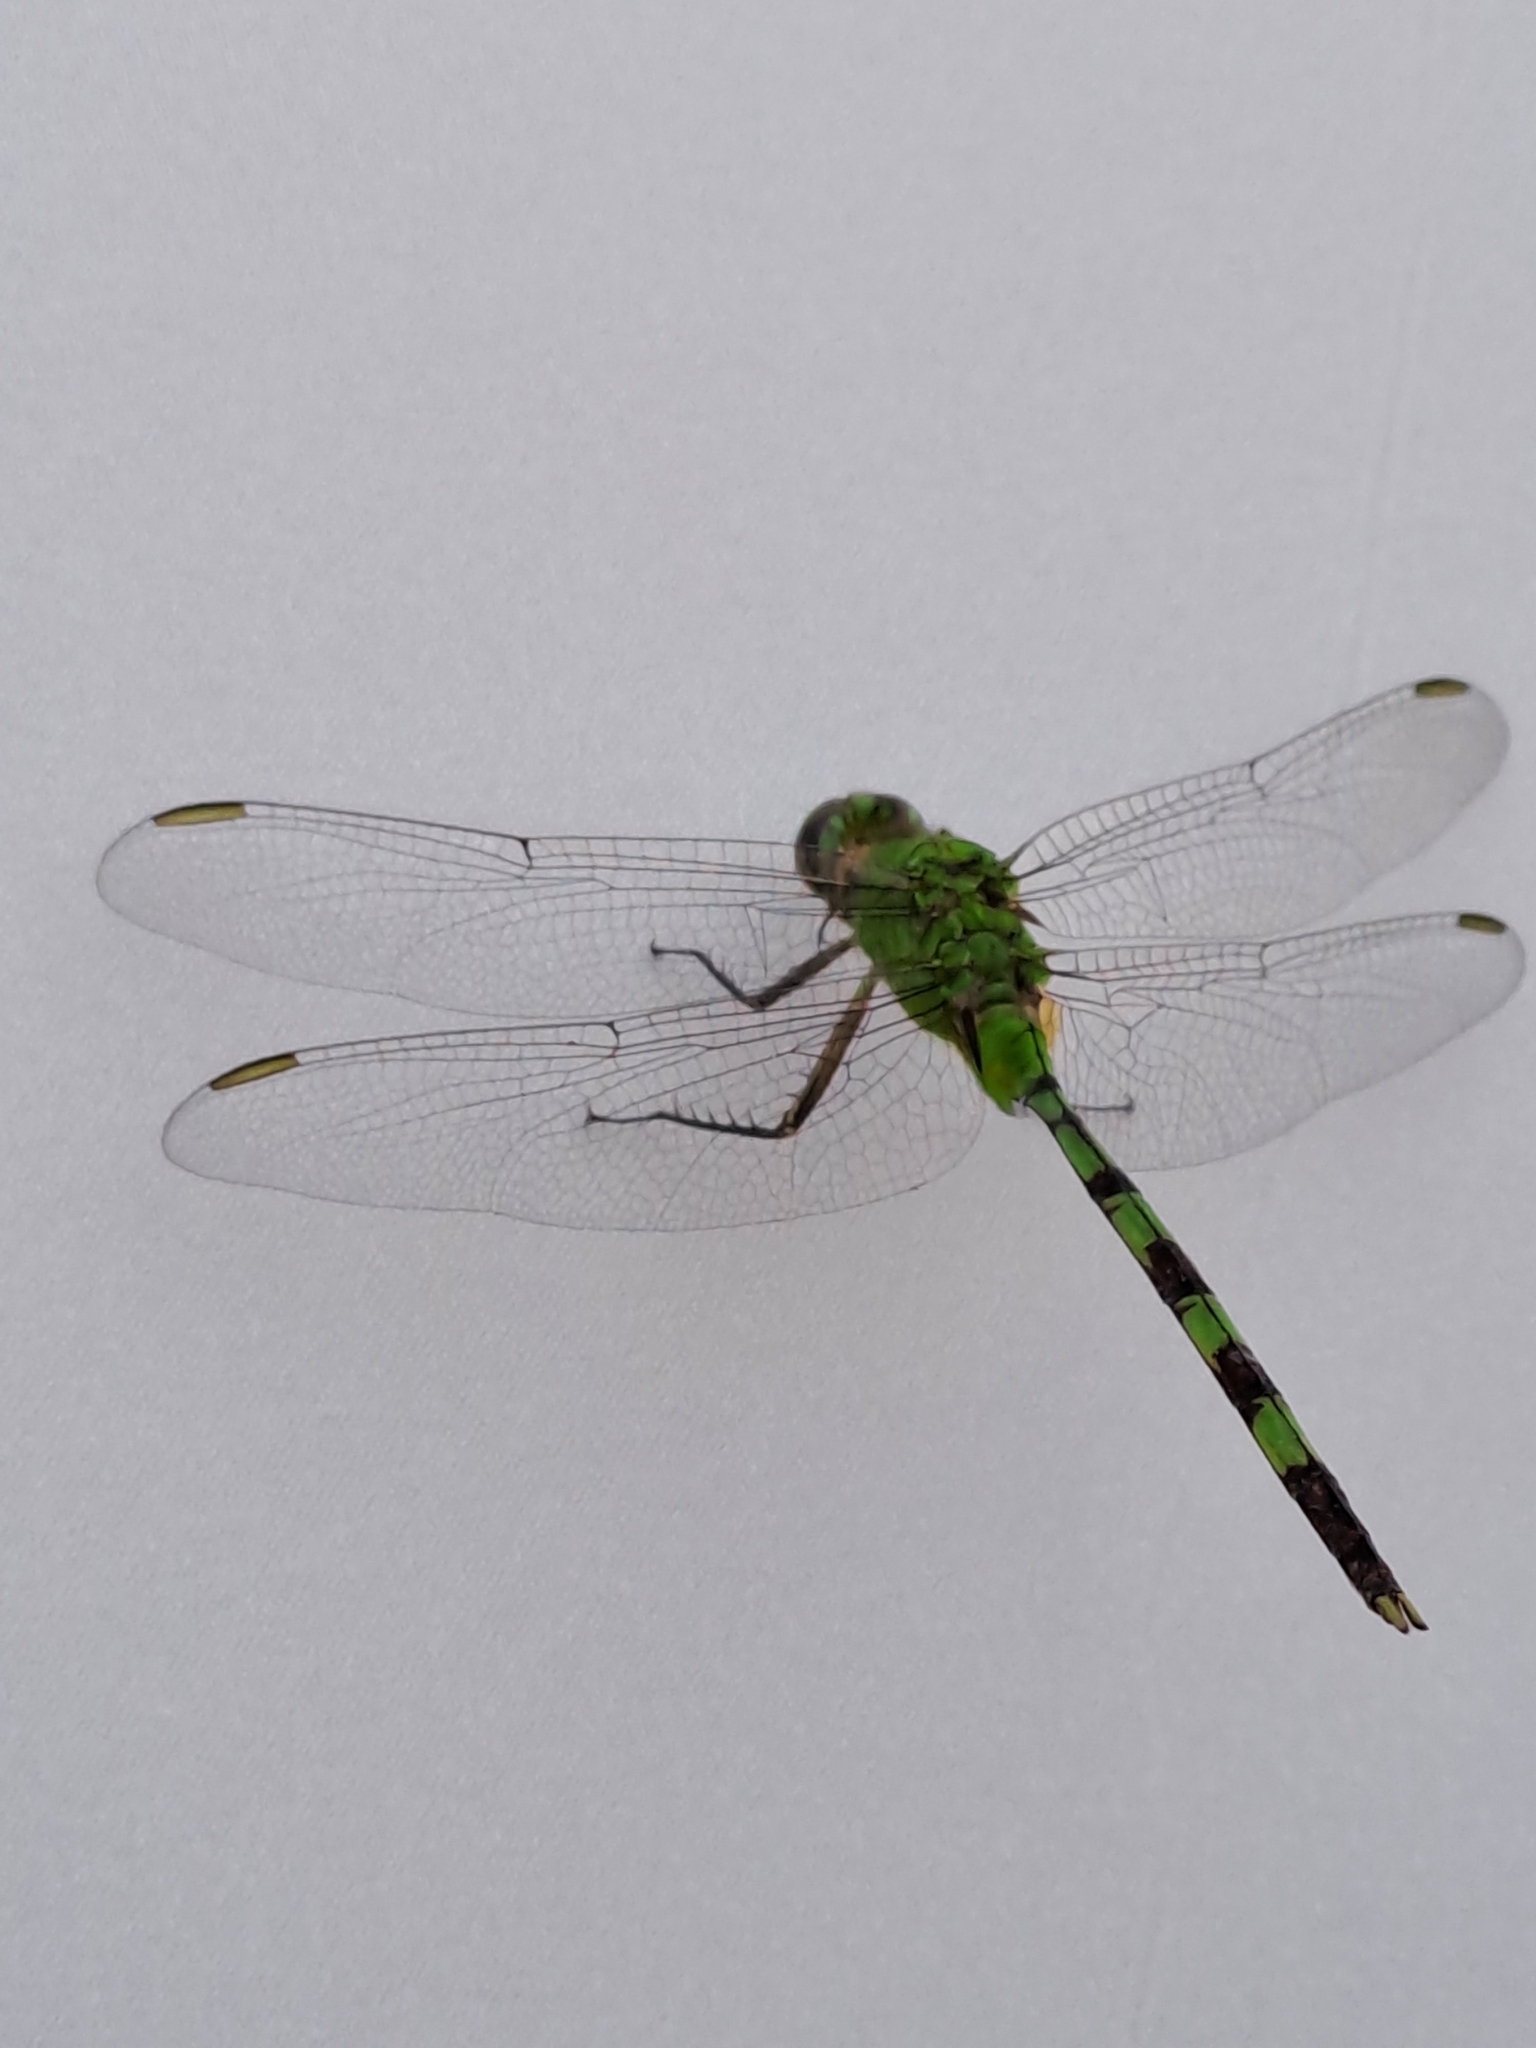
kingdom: Animalia
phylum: Arthropoda
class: Insecta
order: Odonata
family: Libellulidae
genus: Erythemis
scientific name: Erythemis vesiculosa
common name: Great pondhawk
